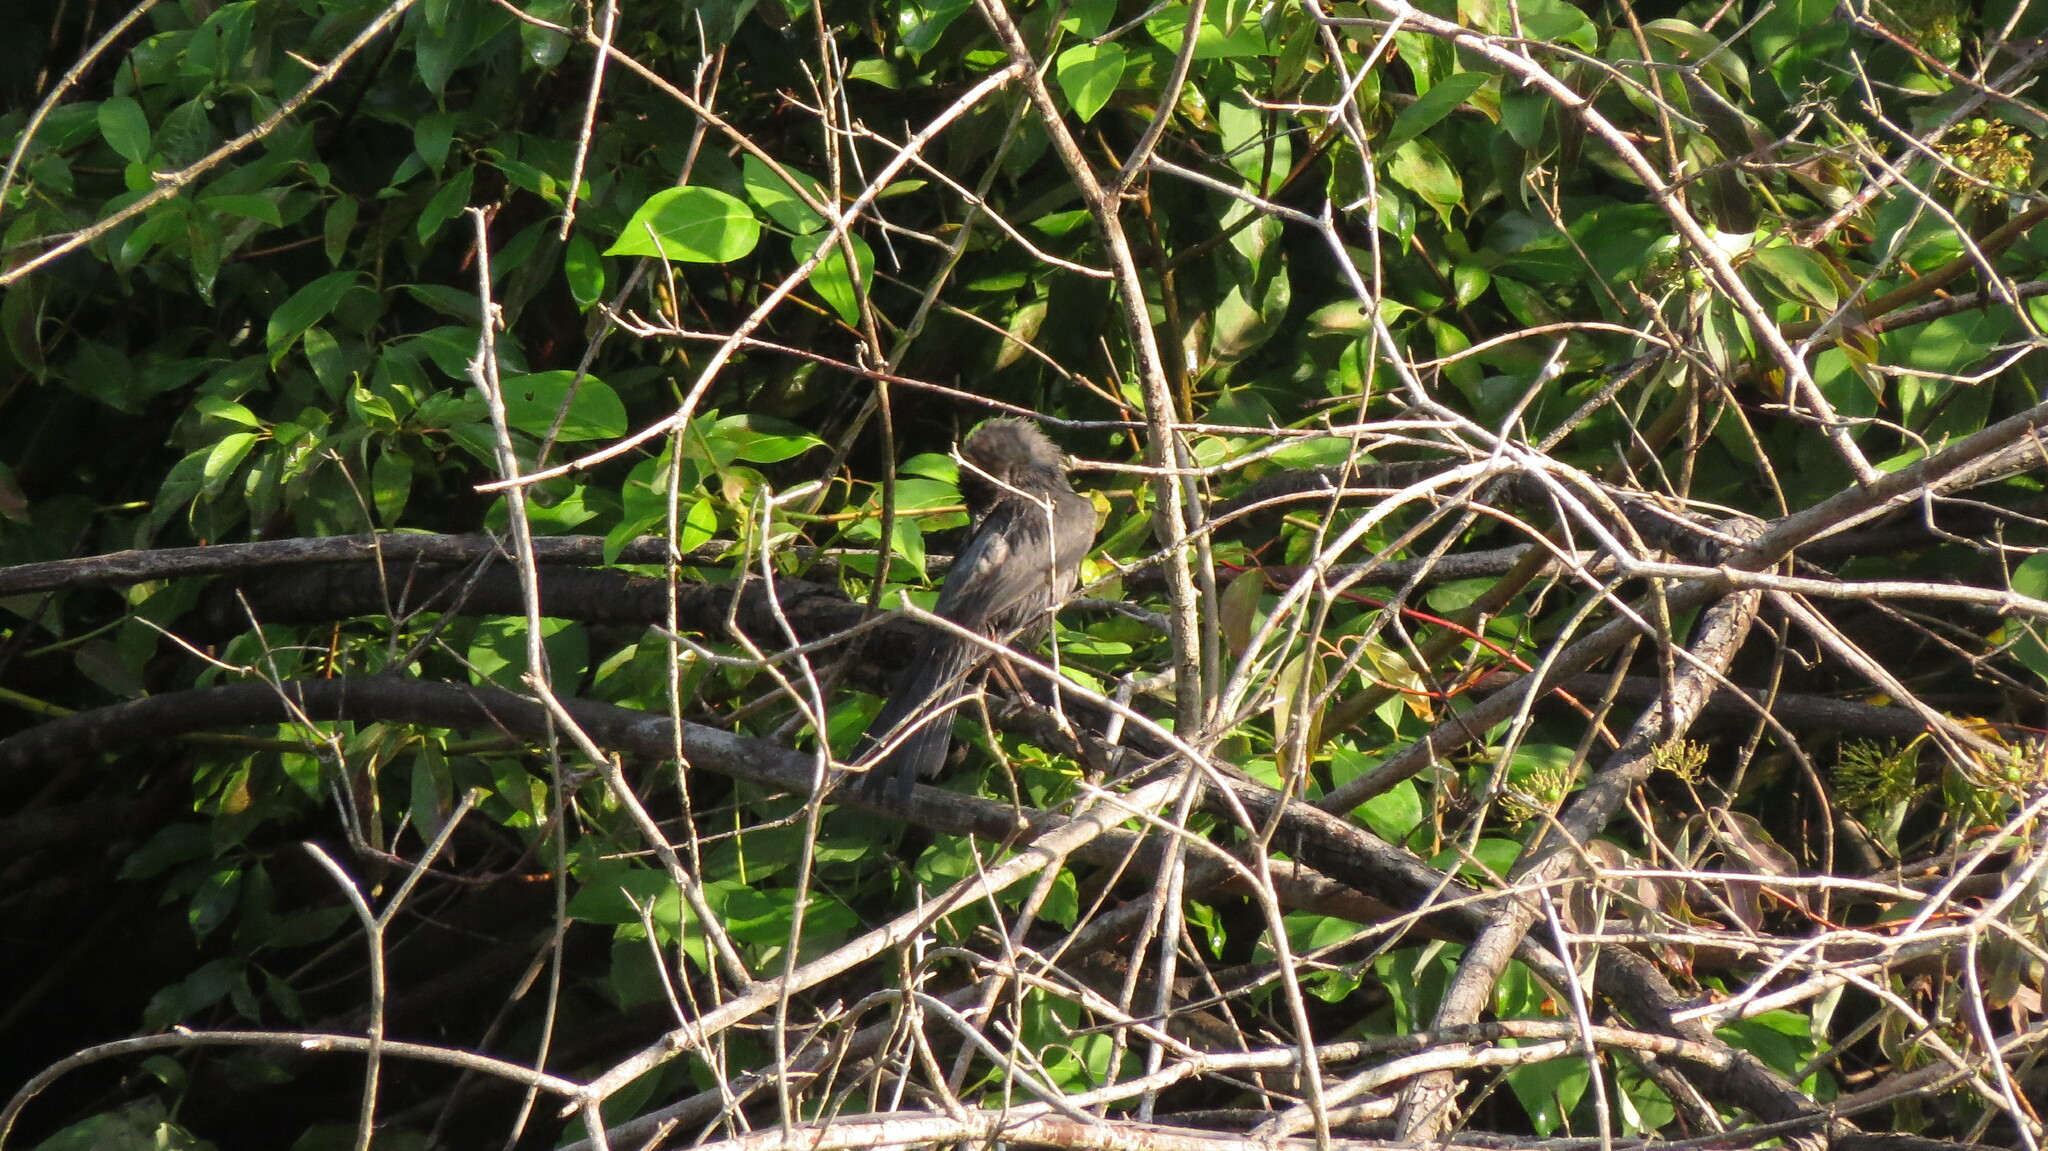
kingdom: Animalia
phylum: Chordata
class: Aves
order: Passeriformes
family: Mimidae
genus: Dumetella
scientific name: Dumetella carolinensis
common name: Gray catbird
